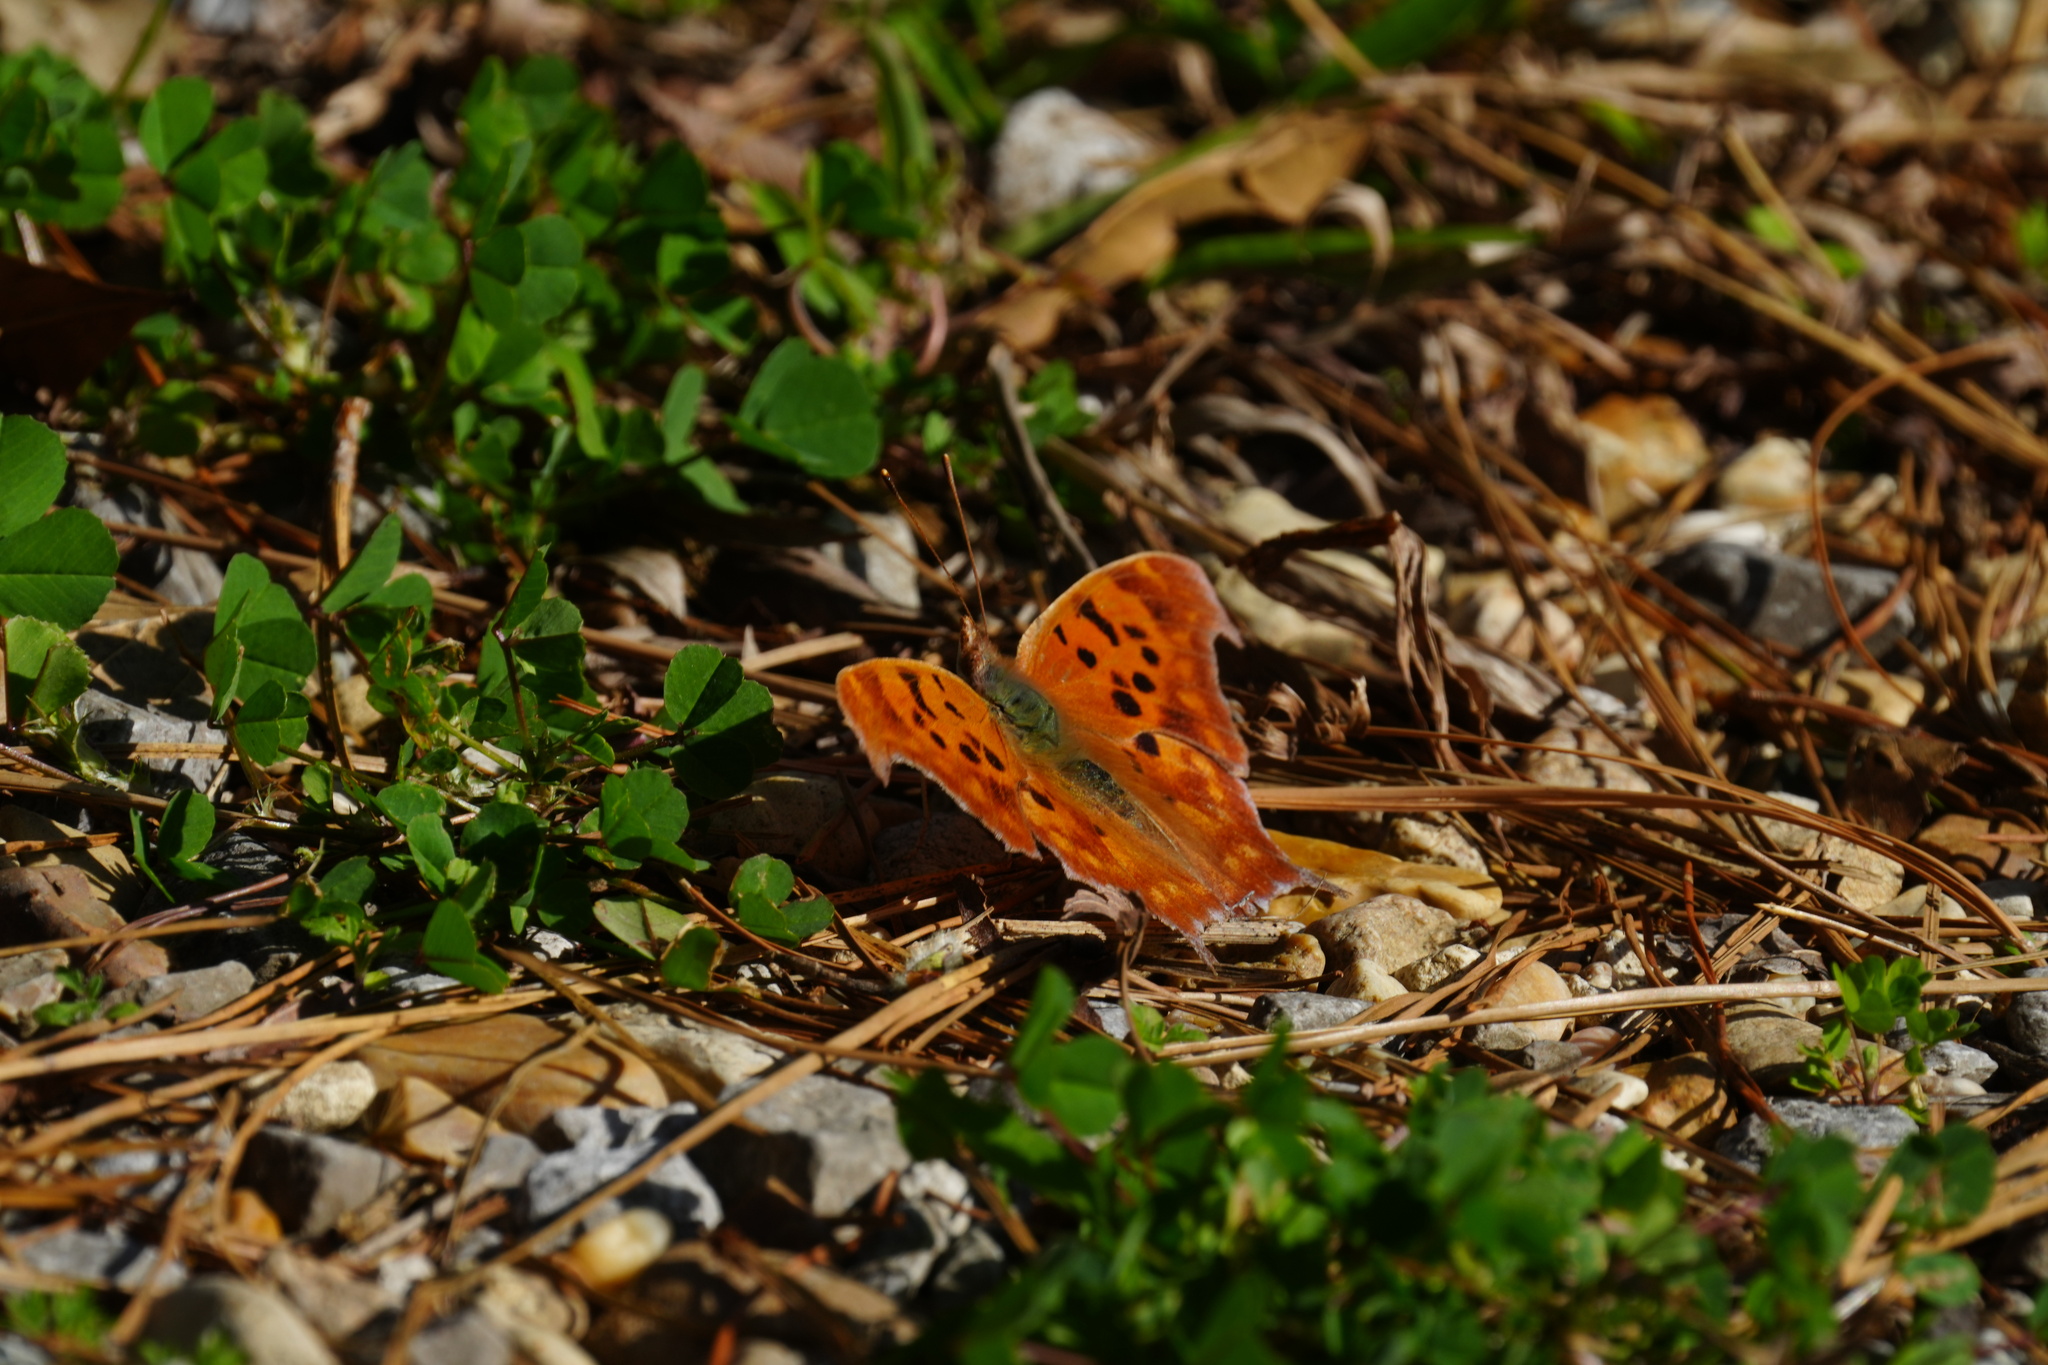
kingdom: Animalia
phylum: Arthropoda
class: Insecta
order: Lepidoptera
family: Nymphalidae
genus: Polygonia
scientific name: Polygonia interrogationis
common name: Question mark
